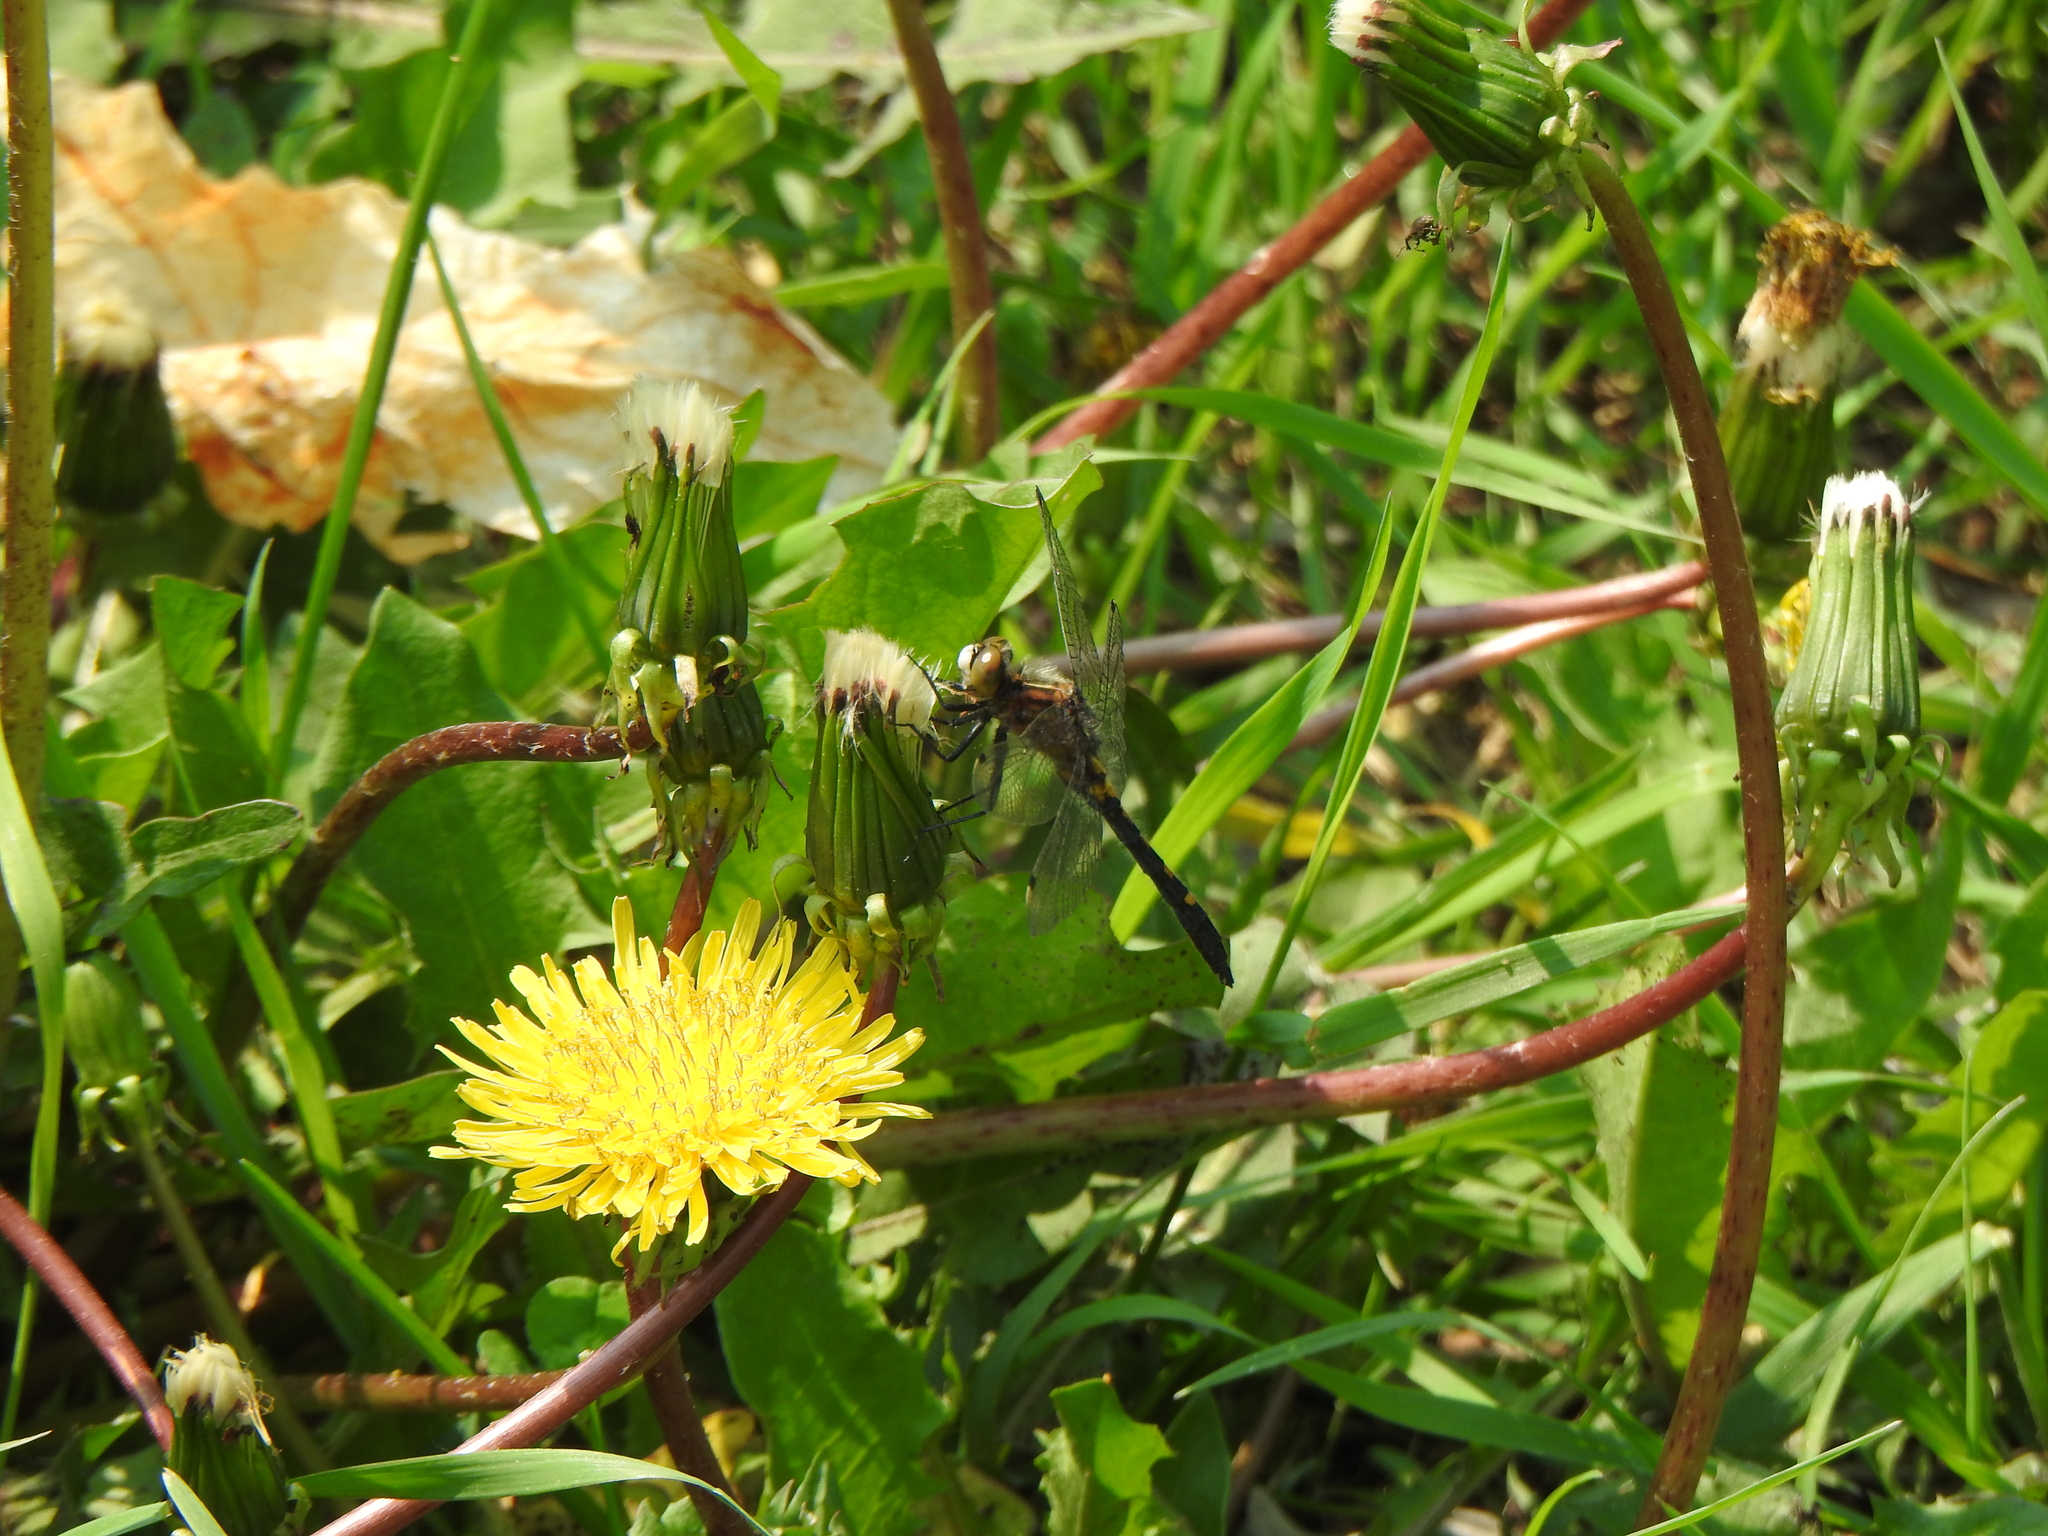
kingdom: Animalia
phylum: Arthropoda
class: Insecta
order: Odonata
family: Libellulidae
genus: Leucorrhinia
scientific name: Leucorrhinia intacta
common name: Dot-tailed whiteface
